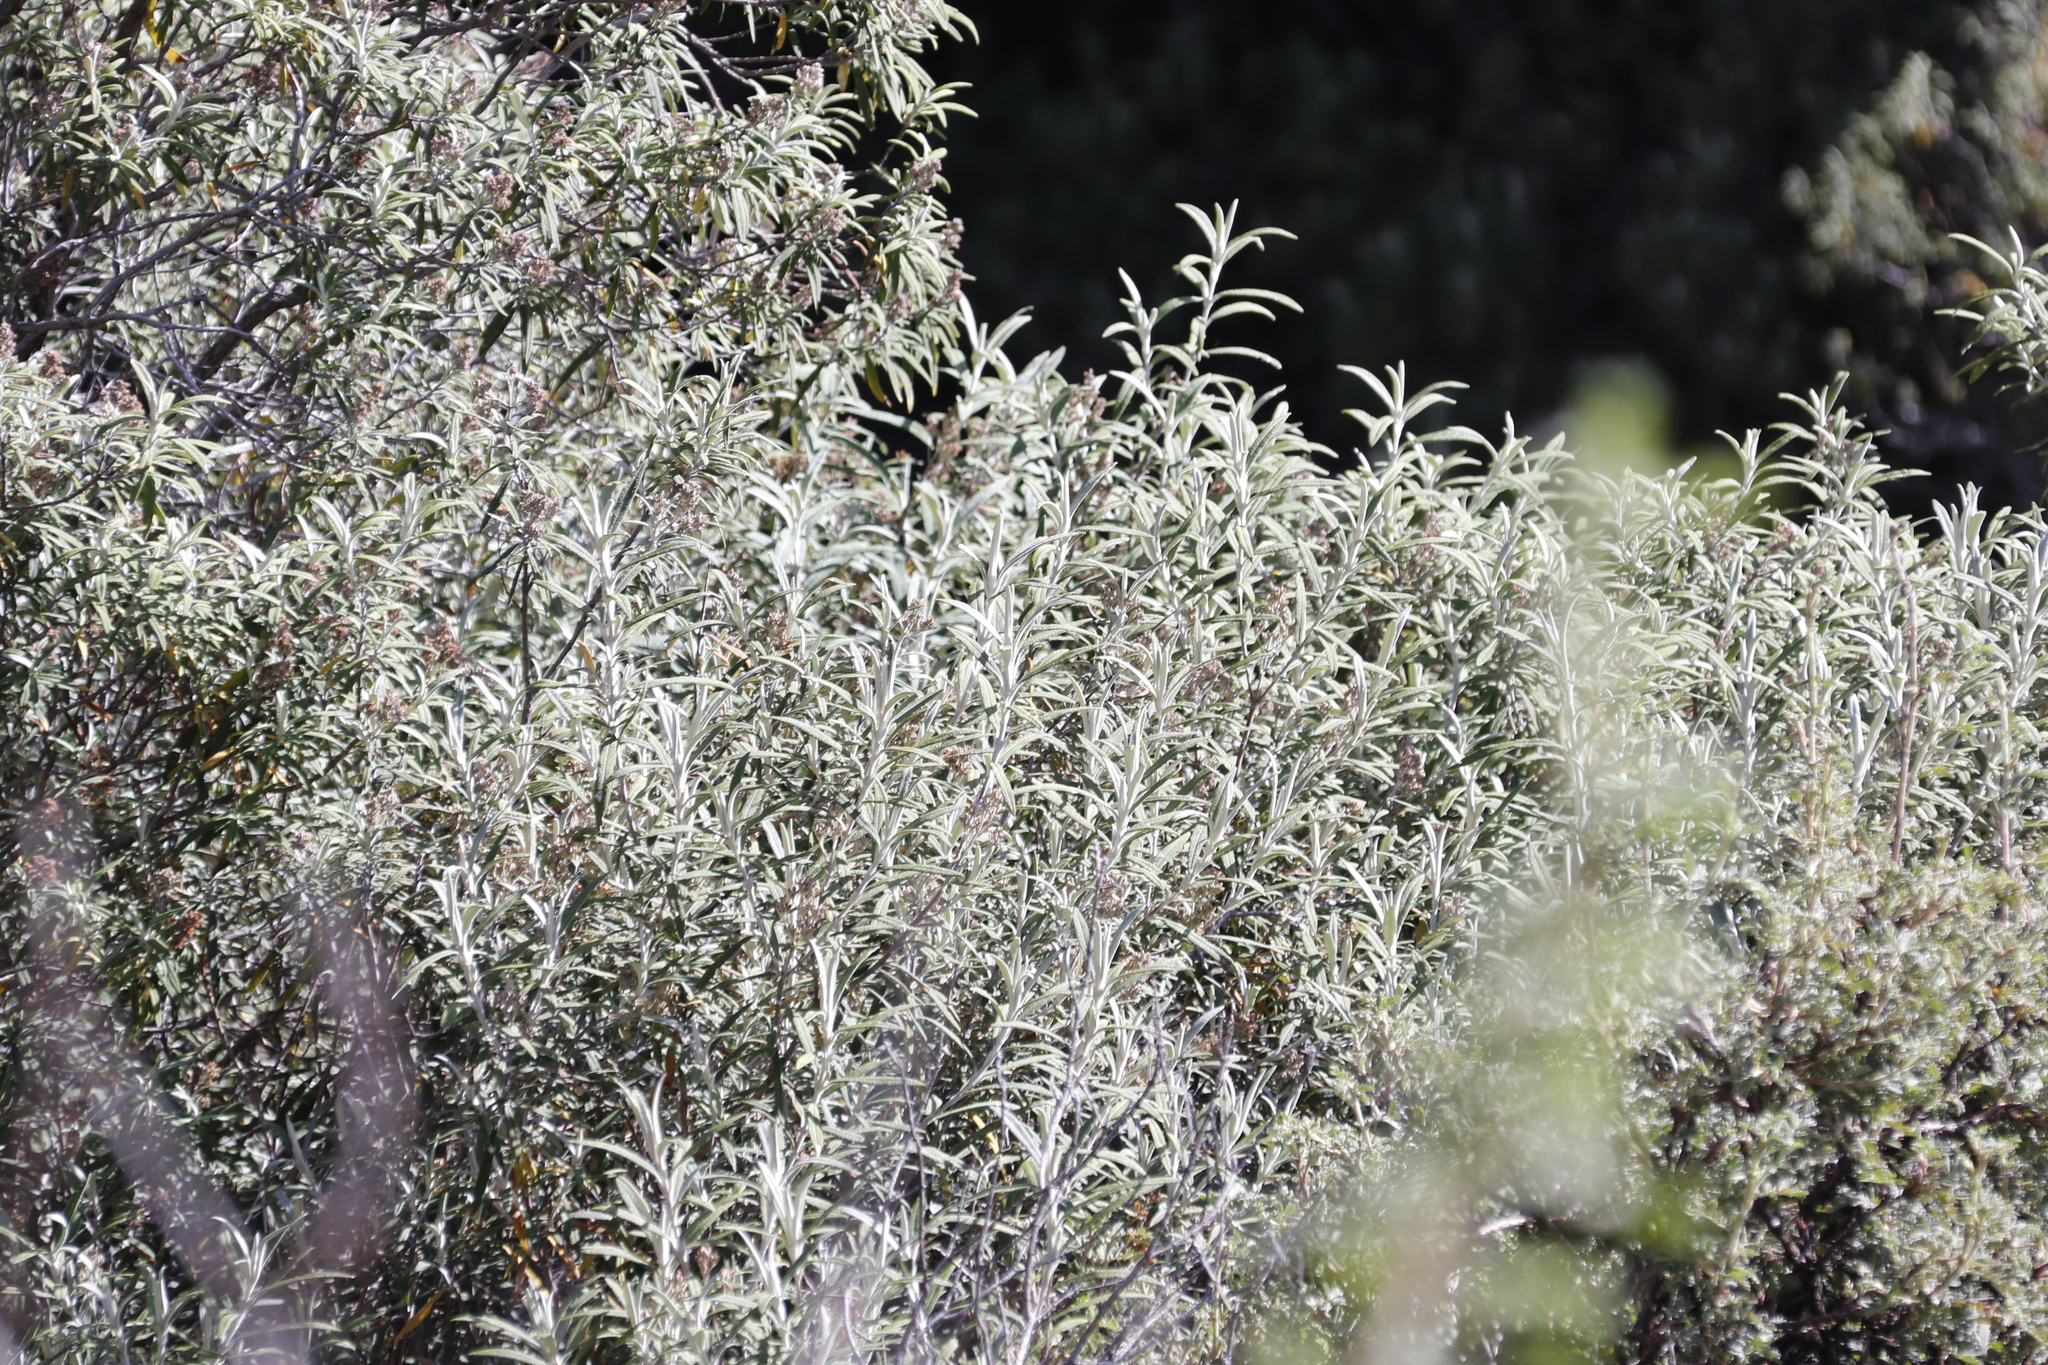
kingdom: Plantae
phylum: Tracheophyta
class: Magnoliopsida
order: Lamiales
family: Scrophulariaceae
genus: Buddleja
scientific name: Buddleja loricata
